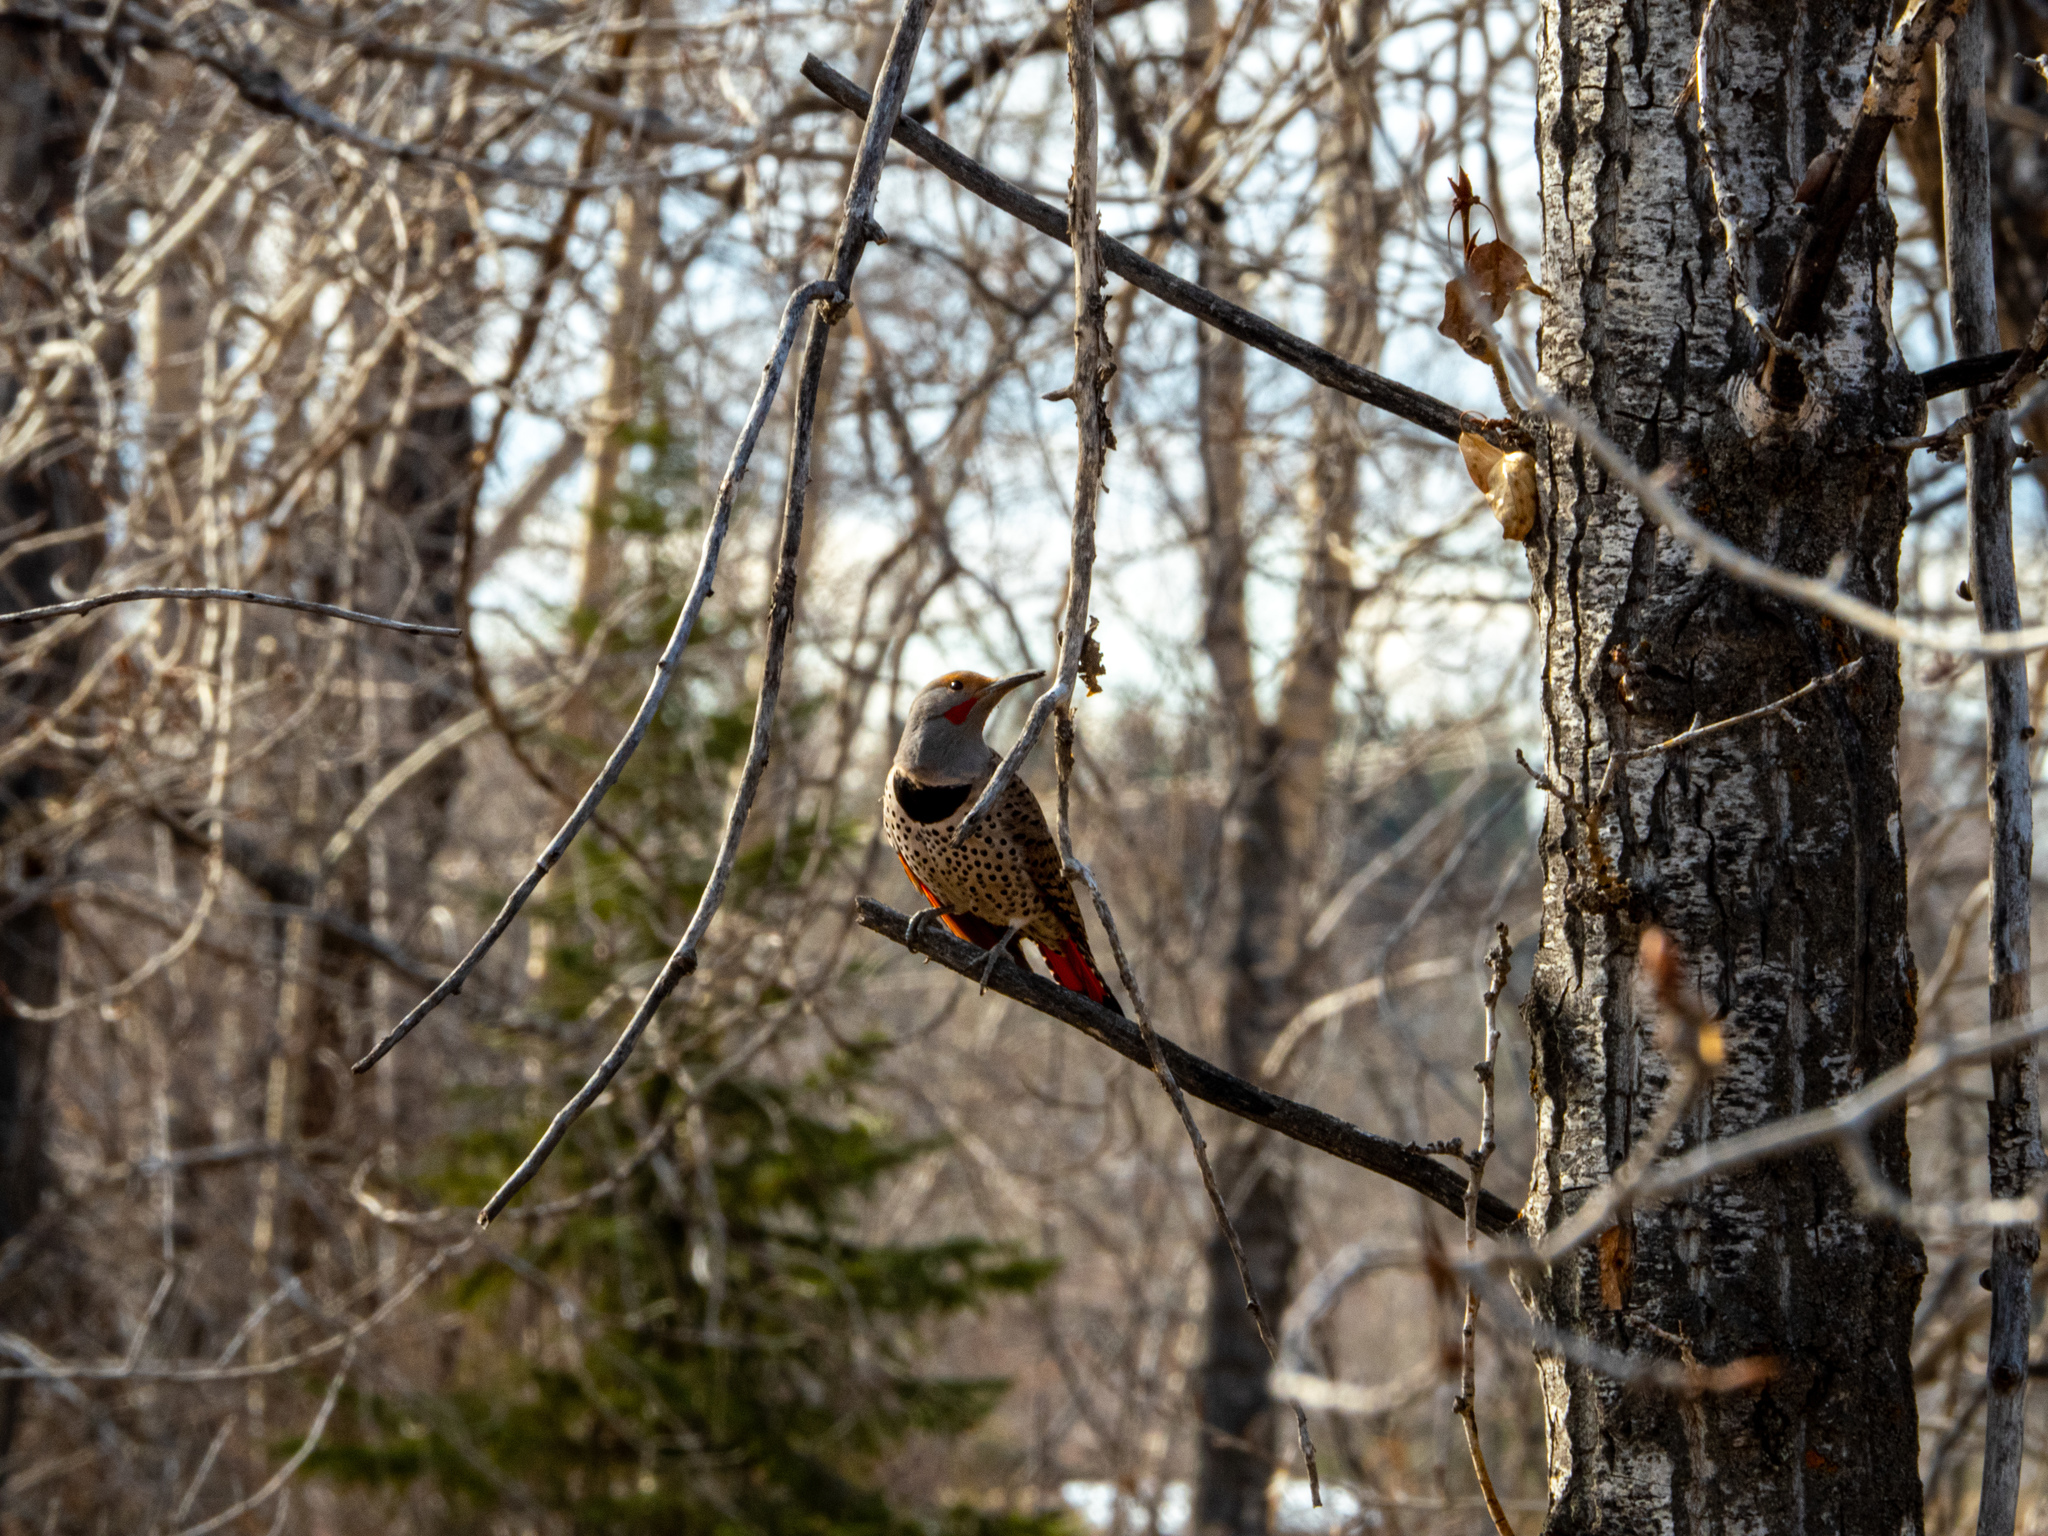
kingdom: Animalia
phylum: Chordata
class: Aves
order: Piciformes
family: Picidae
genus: Colaptes
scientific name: Colaptes auratus
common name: Northern flicker
